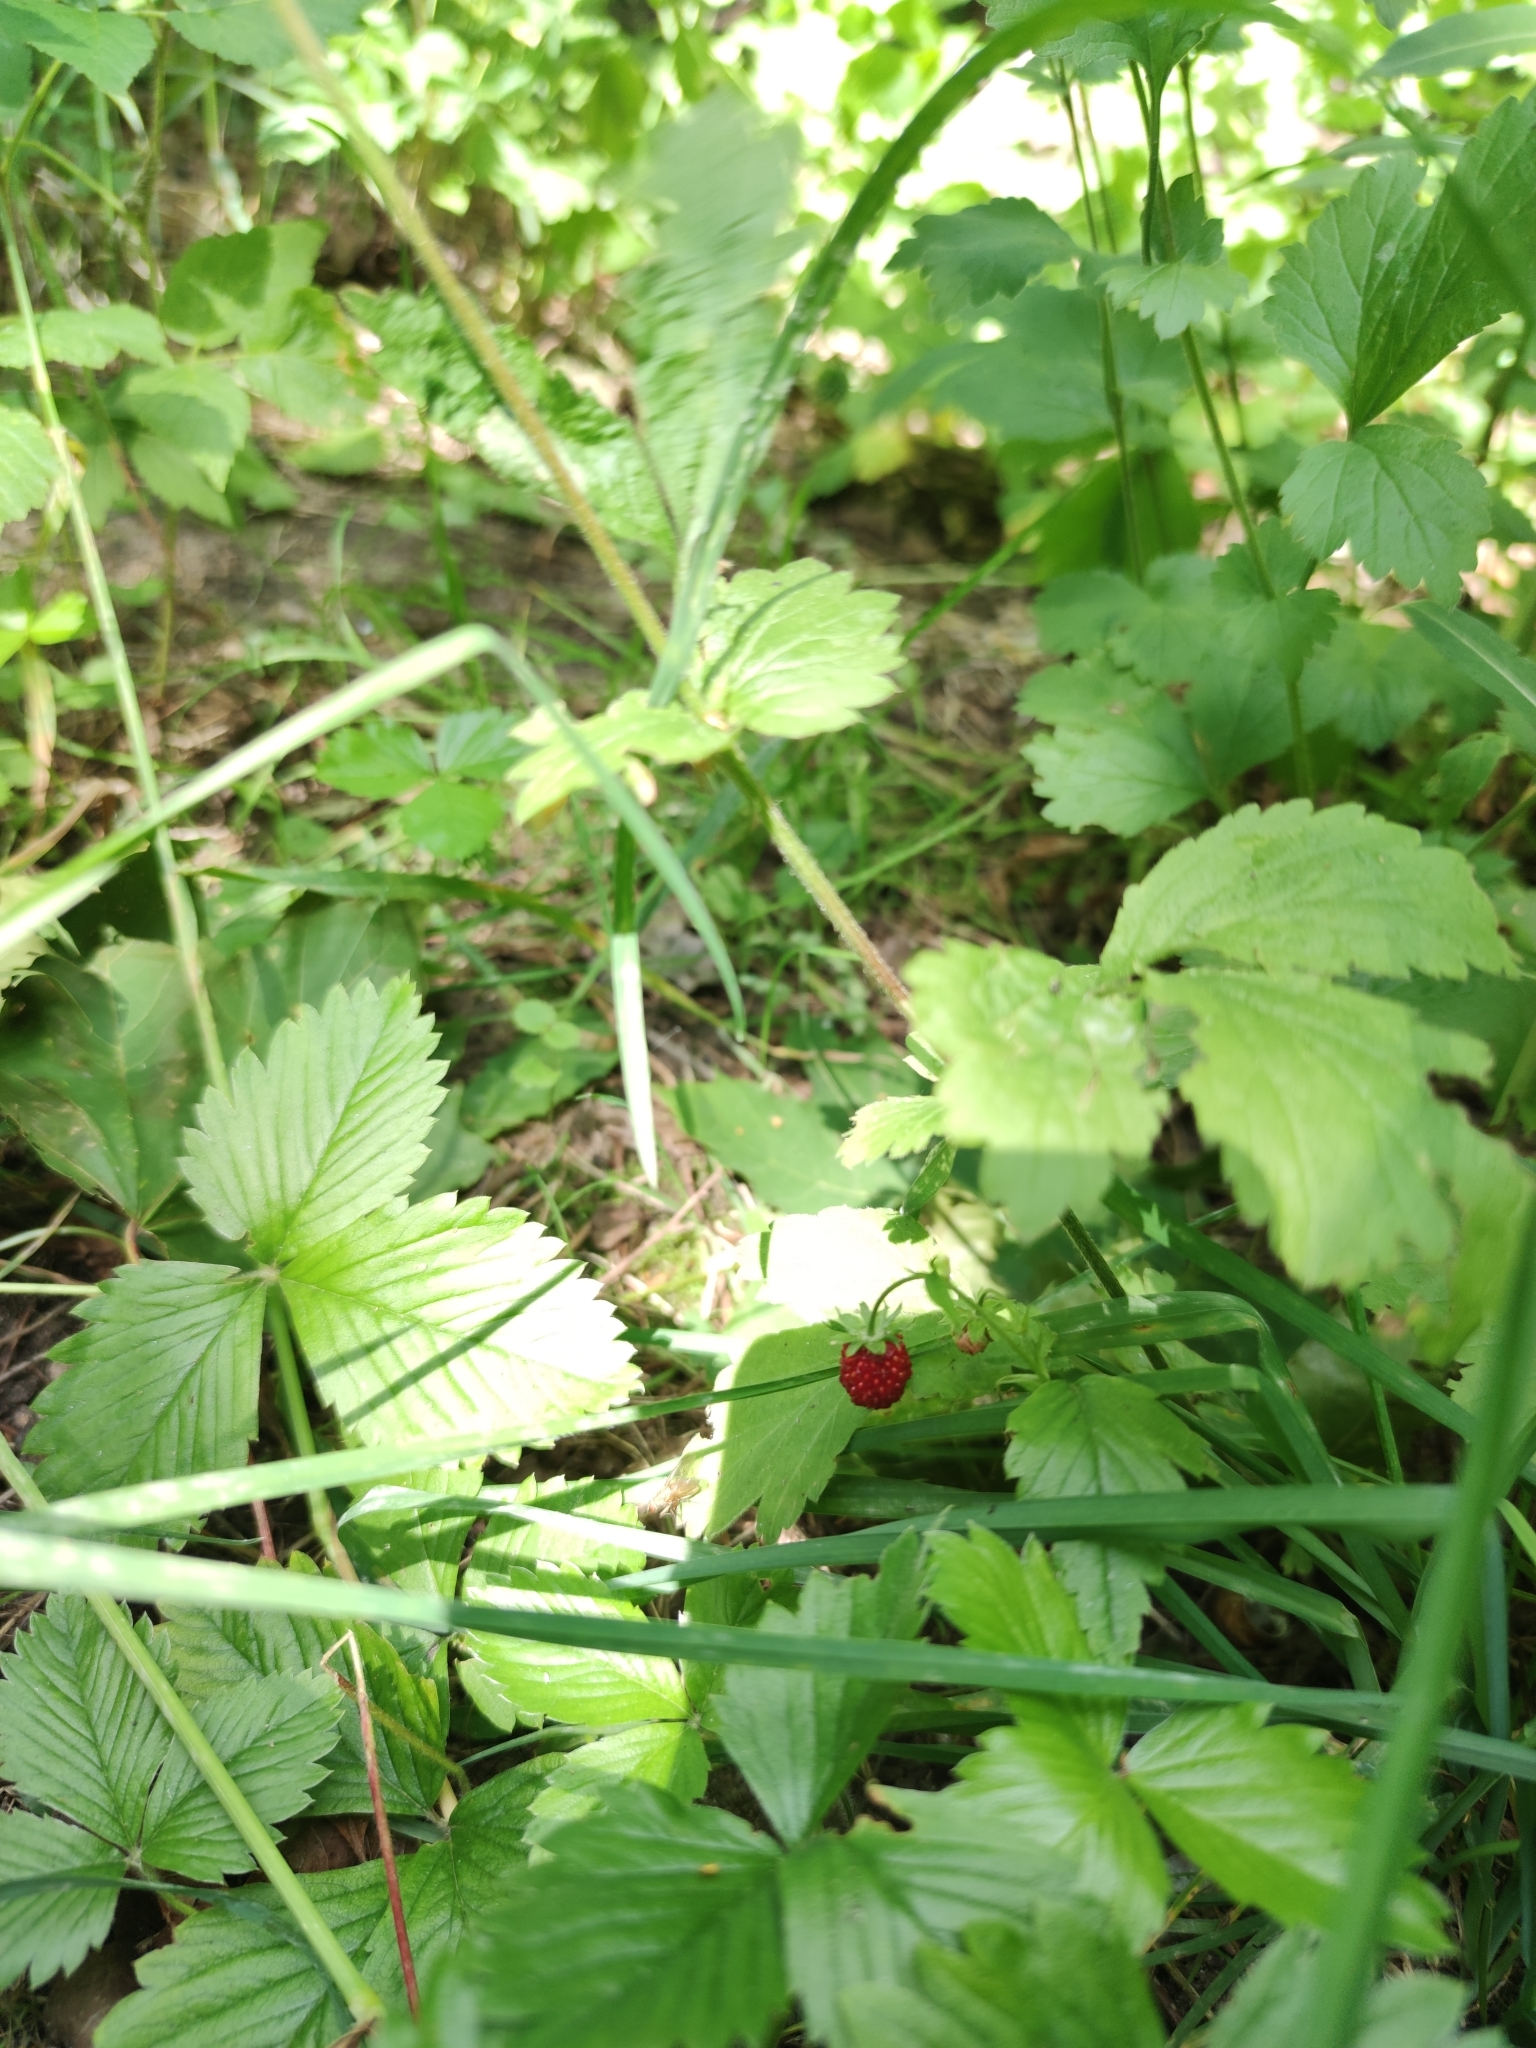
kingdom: Plantae
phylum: Tracheophyta
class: Magnoliopsida
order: Rosales
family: Rosaceae
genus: Fragaria
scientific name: Fragaria vesca
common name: Wild strawberry
